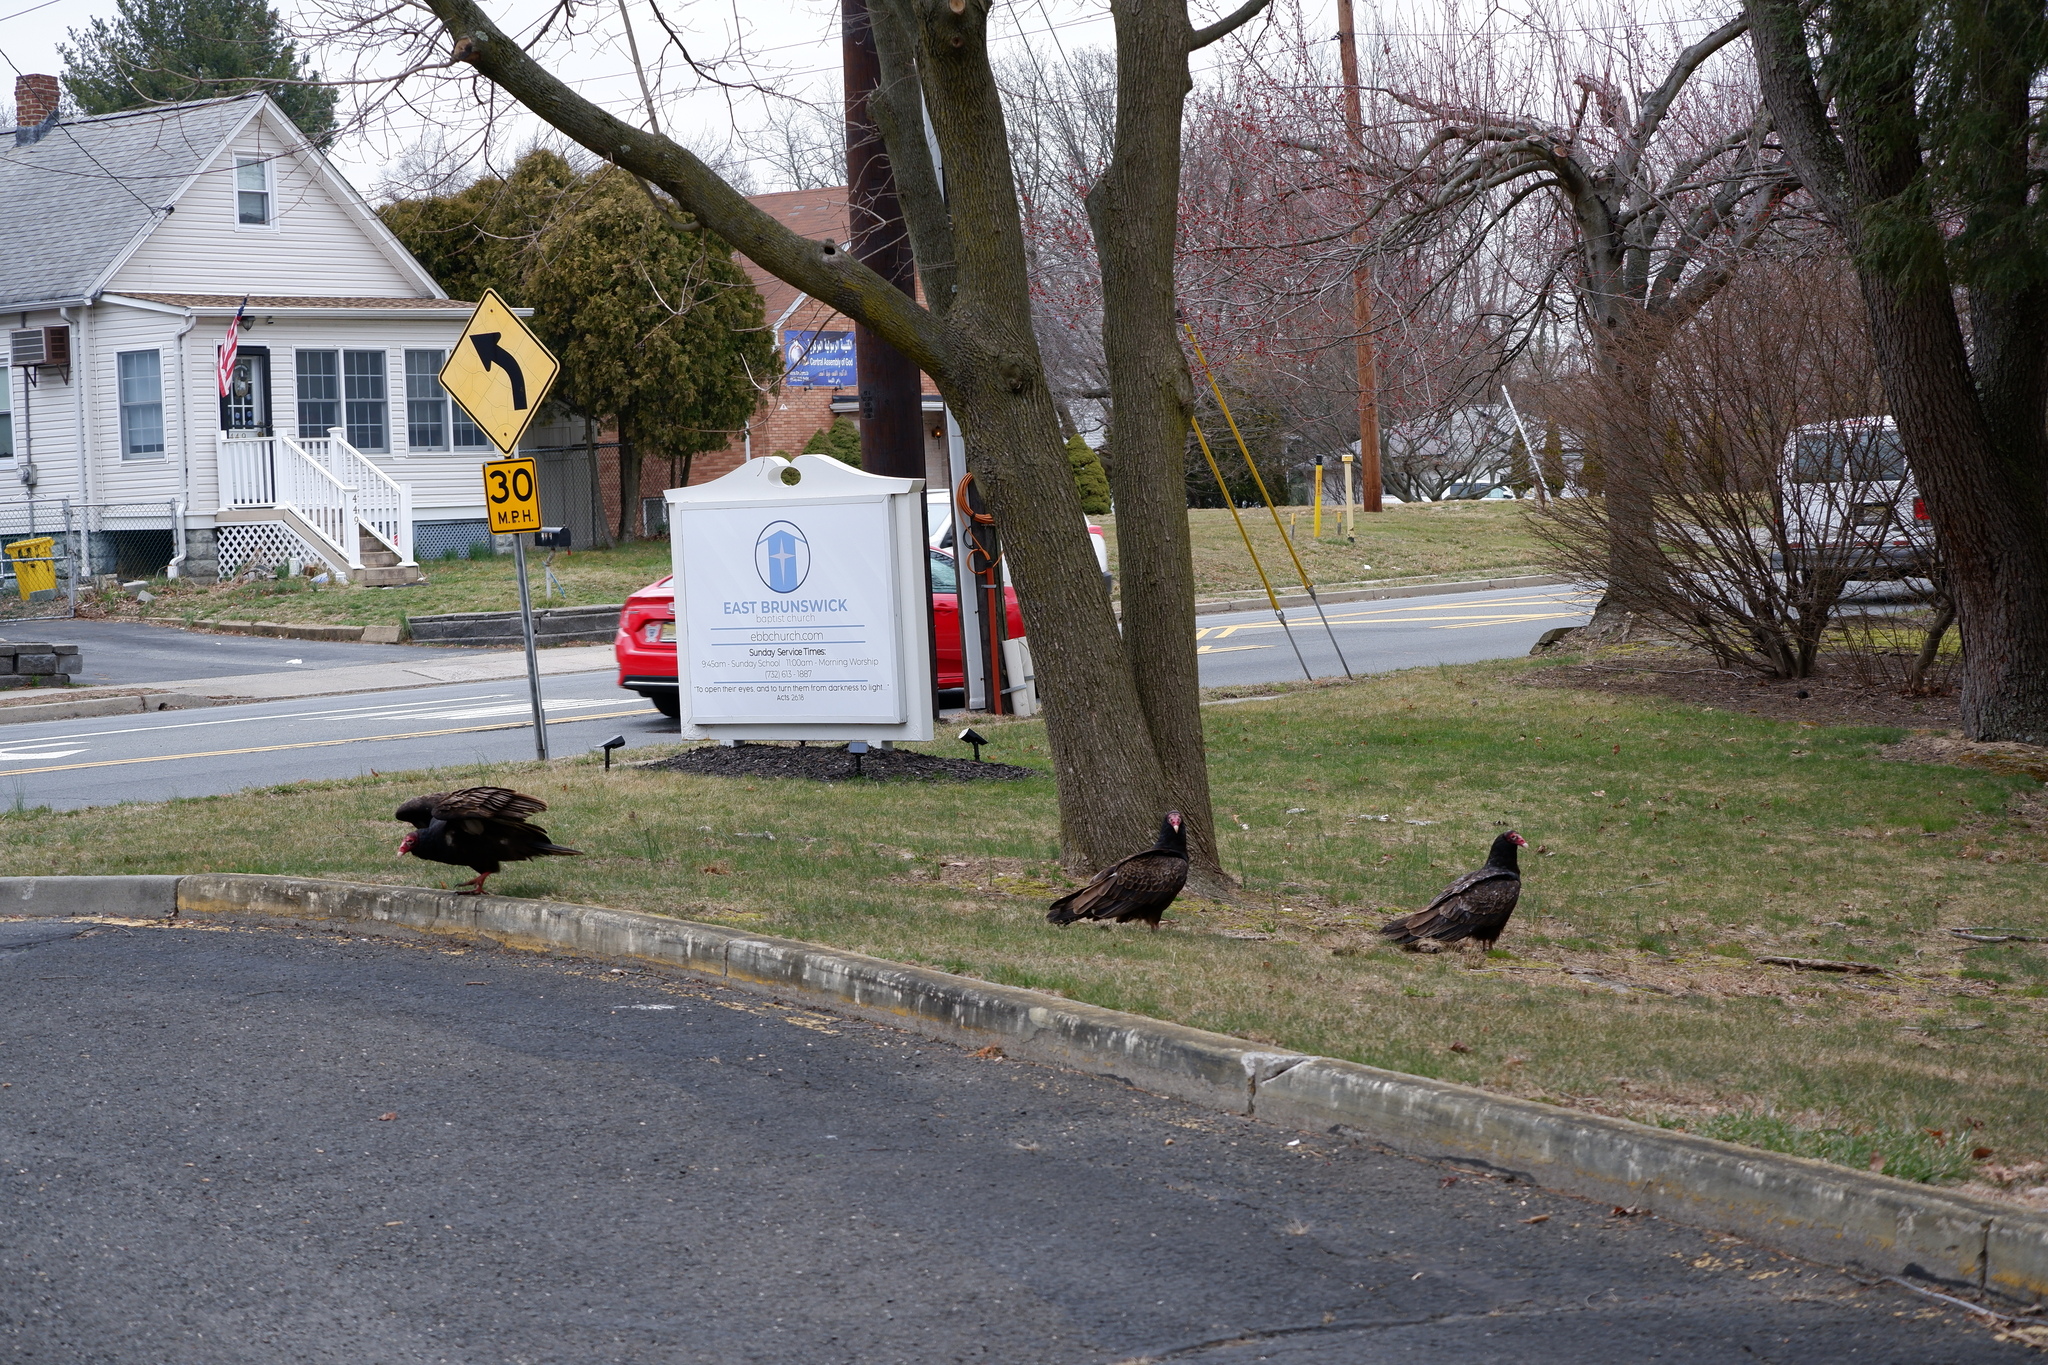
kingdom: Animalia
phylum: Chordata
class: Aves
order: Accipitriformes
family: Cathartidae
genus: Cathartes
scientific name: Cathartes aura
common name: Turkey vulture
